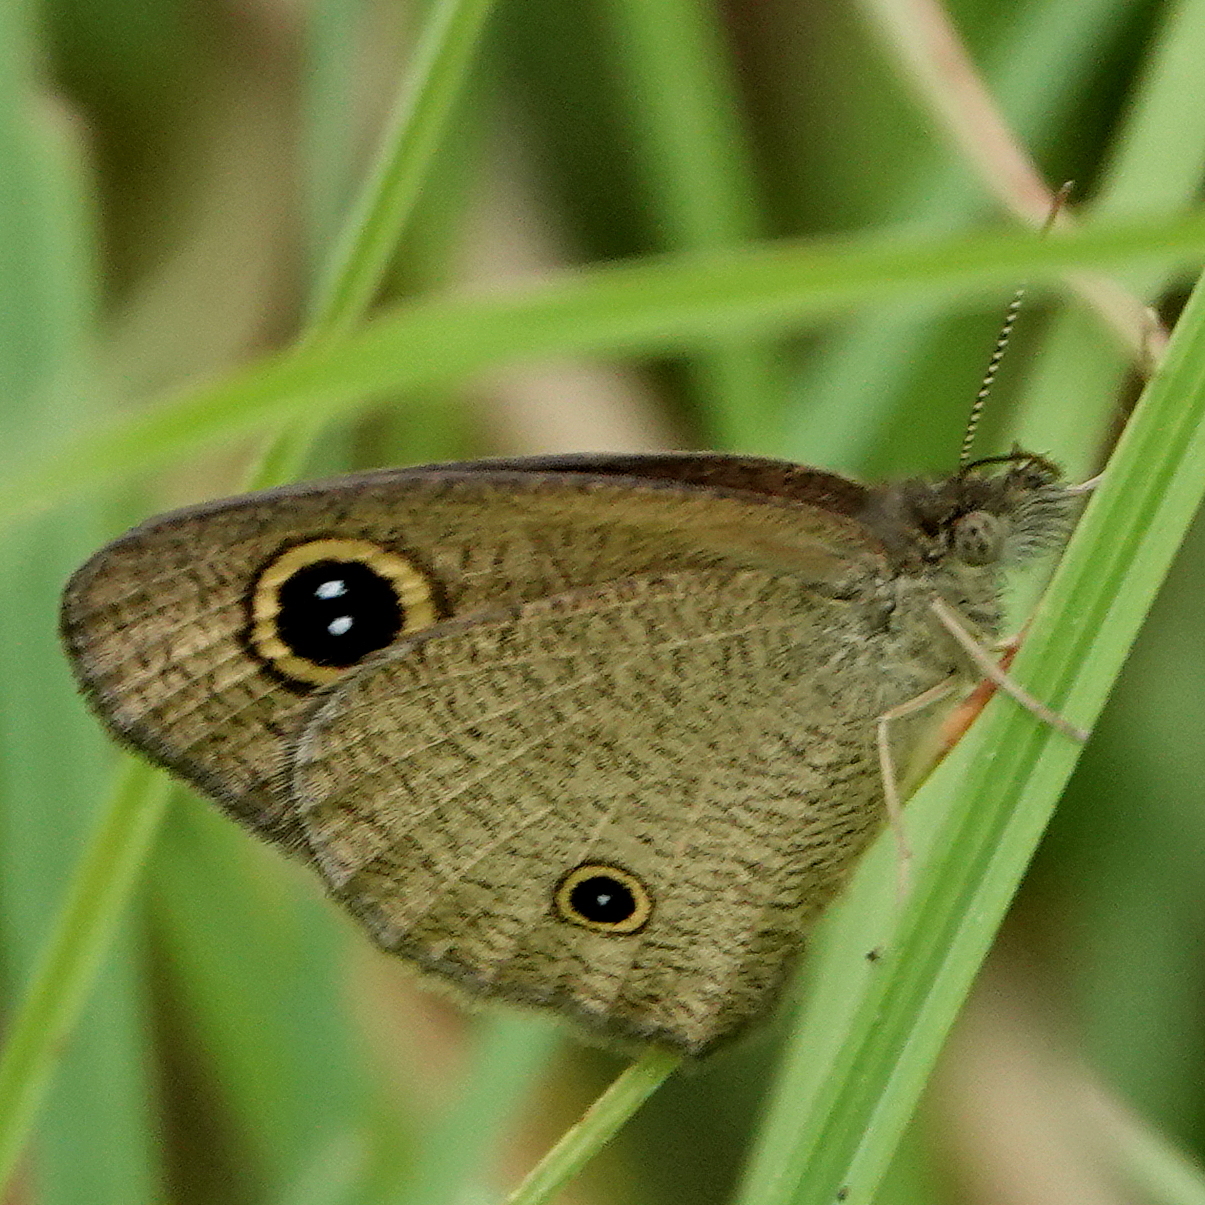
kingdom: Animalia
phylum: Arthropoda
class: Insecta
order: Lepidoptera
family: Nymphalidae
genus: Ypthima
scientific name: Ypthima arctous
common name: Dusky knight
